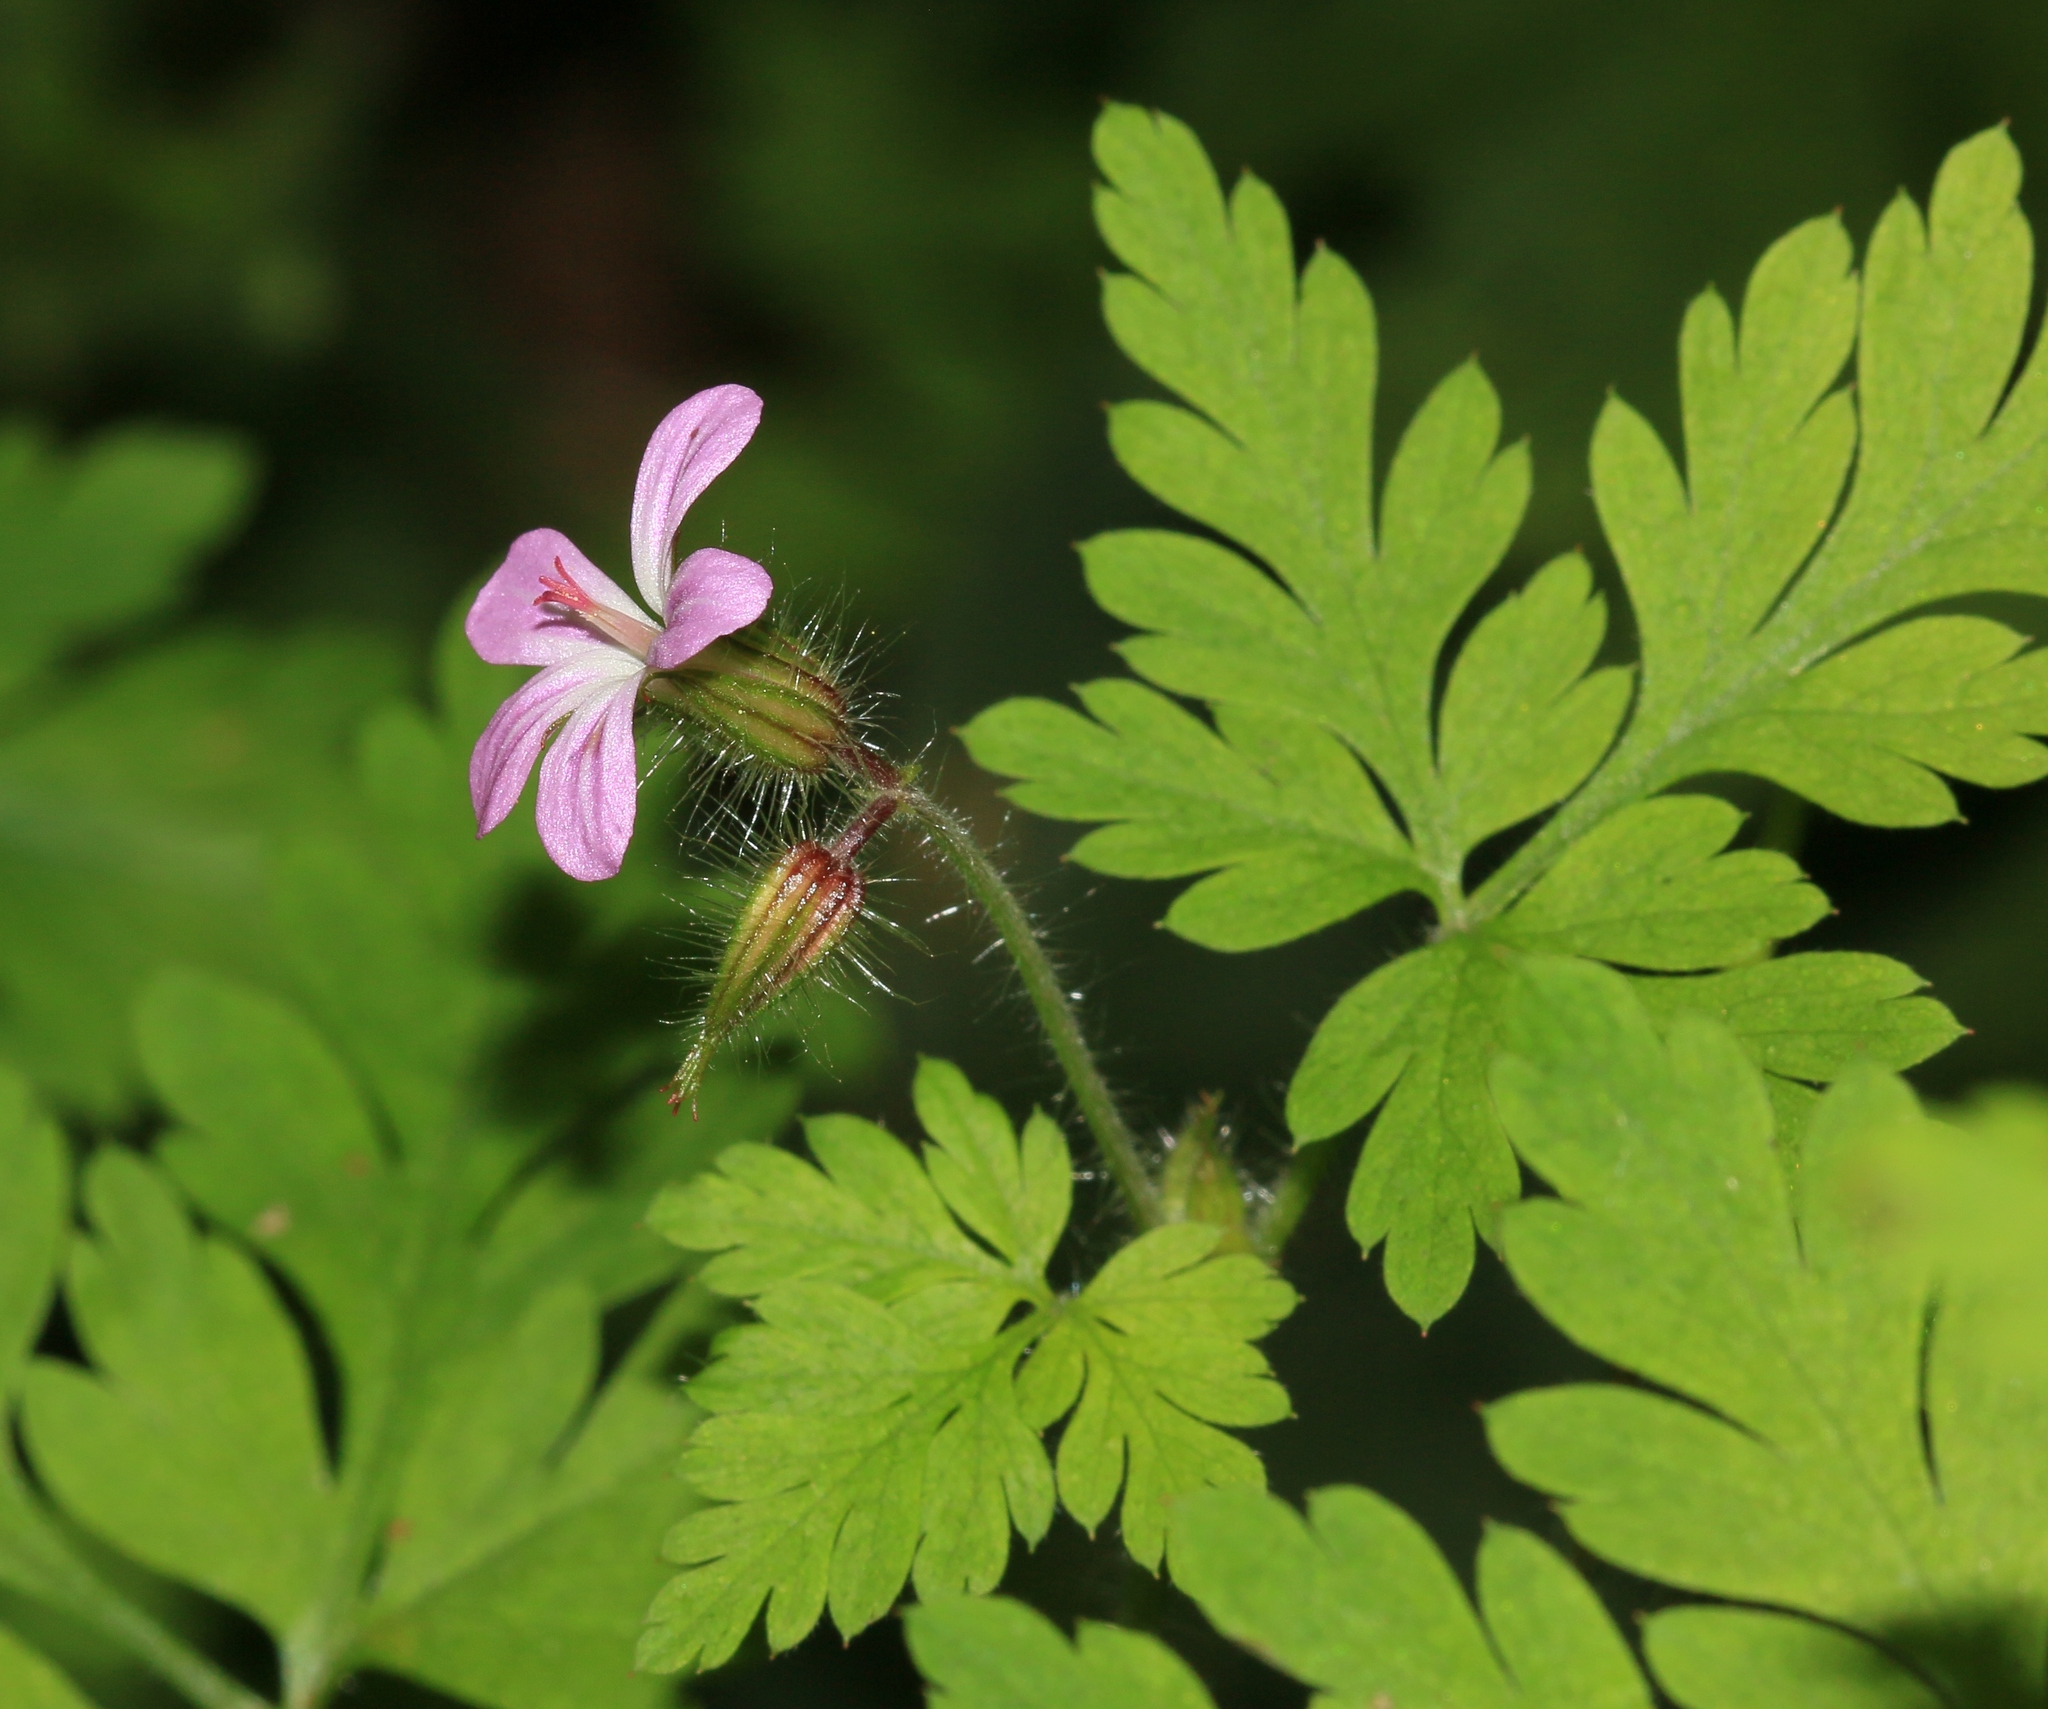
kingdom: Plantae
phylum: Tracheophyta
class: Magnoliopsida
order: Geraniales
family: Geraniaceae
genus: Geranium
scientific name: Geranium robertianum
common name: Herb-robert
